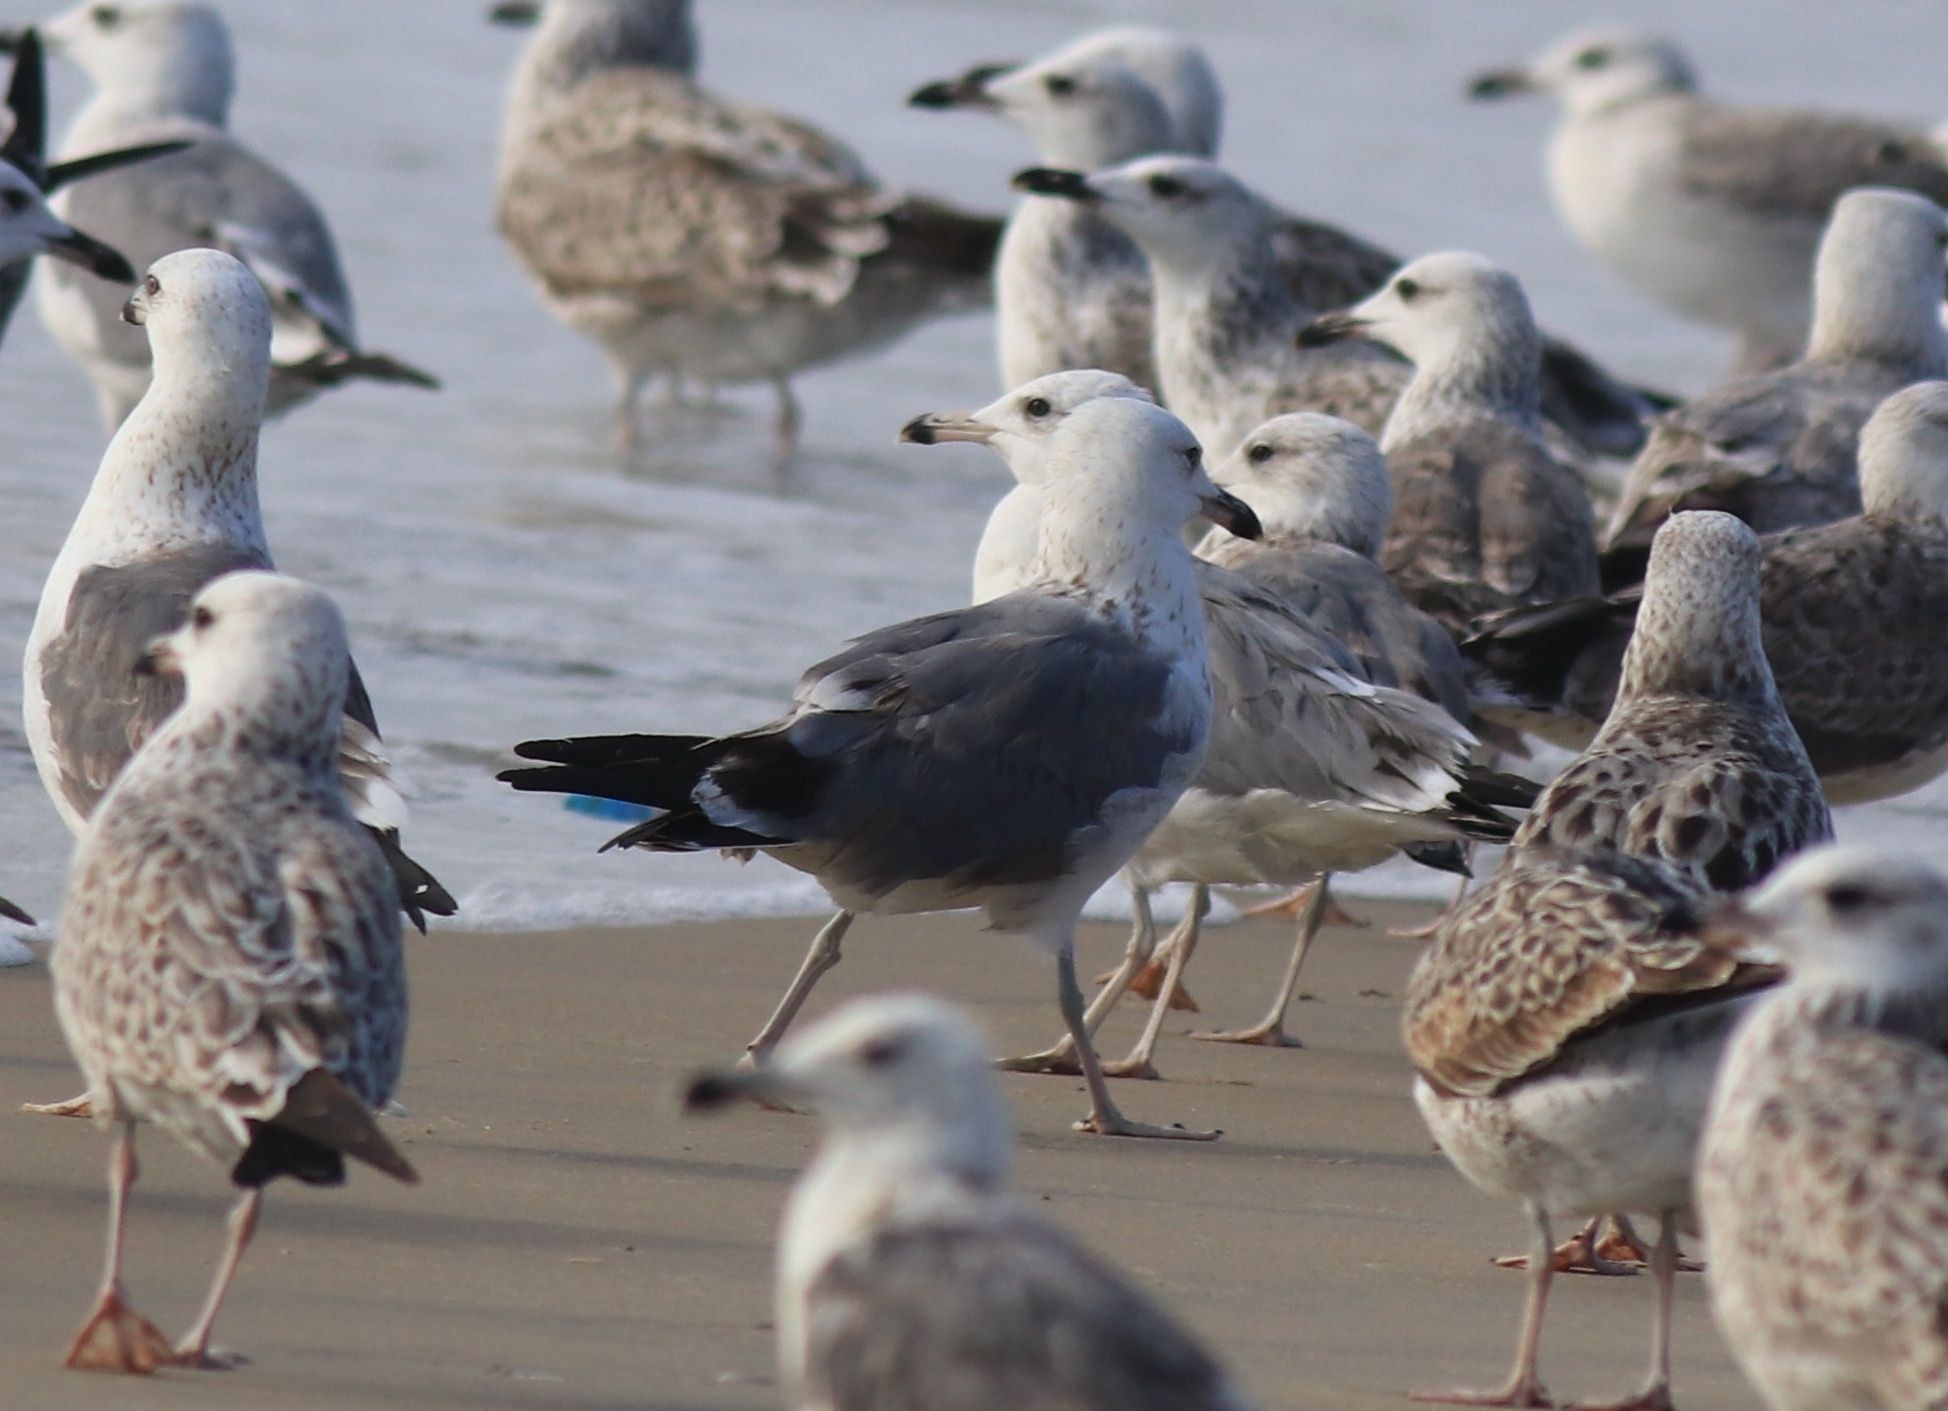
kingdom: Animalia
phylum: Chordata
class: Aves
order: Charadriiformes
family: Laridae
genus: Larus
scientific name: Larus fuscus
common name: Lesser black-backed gull
